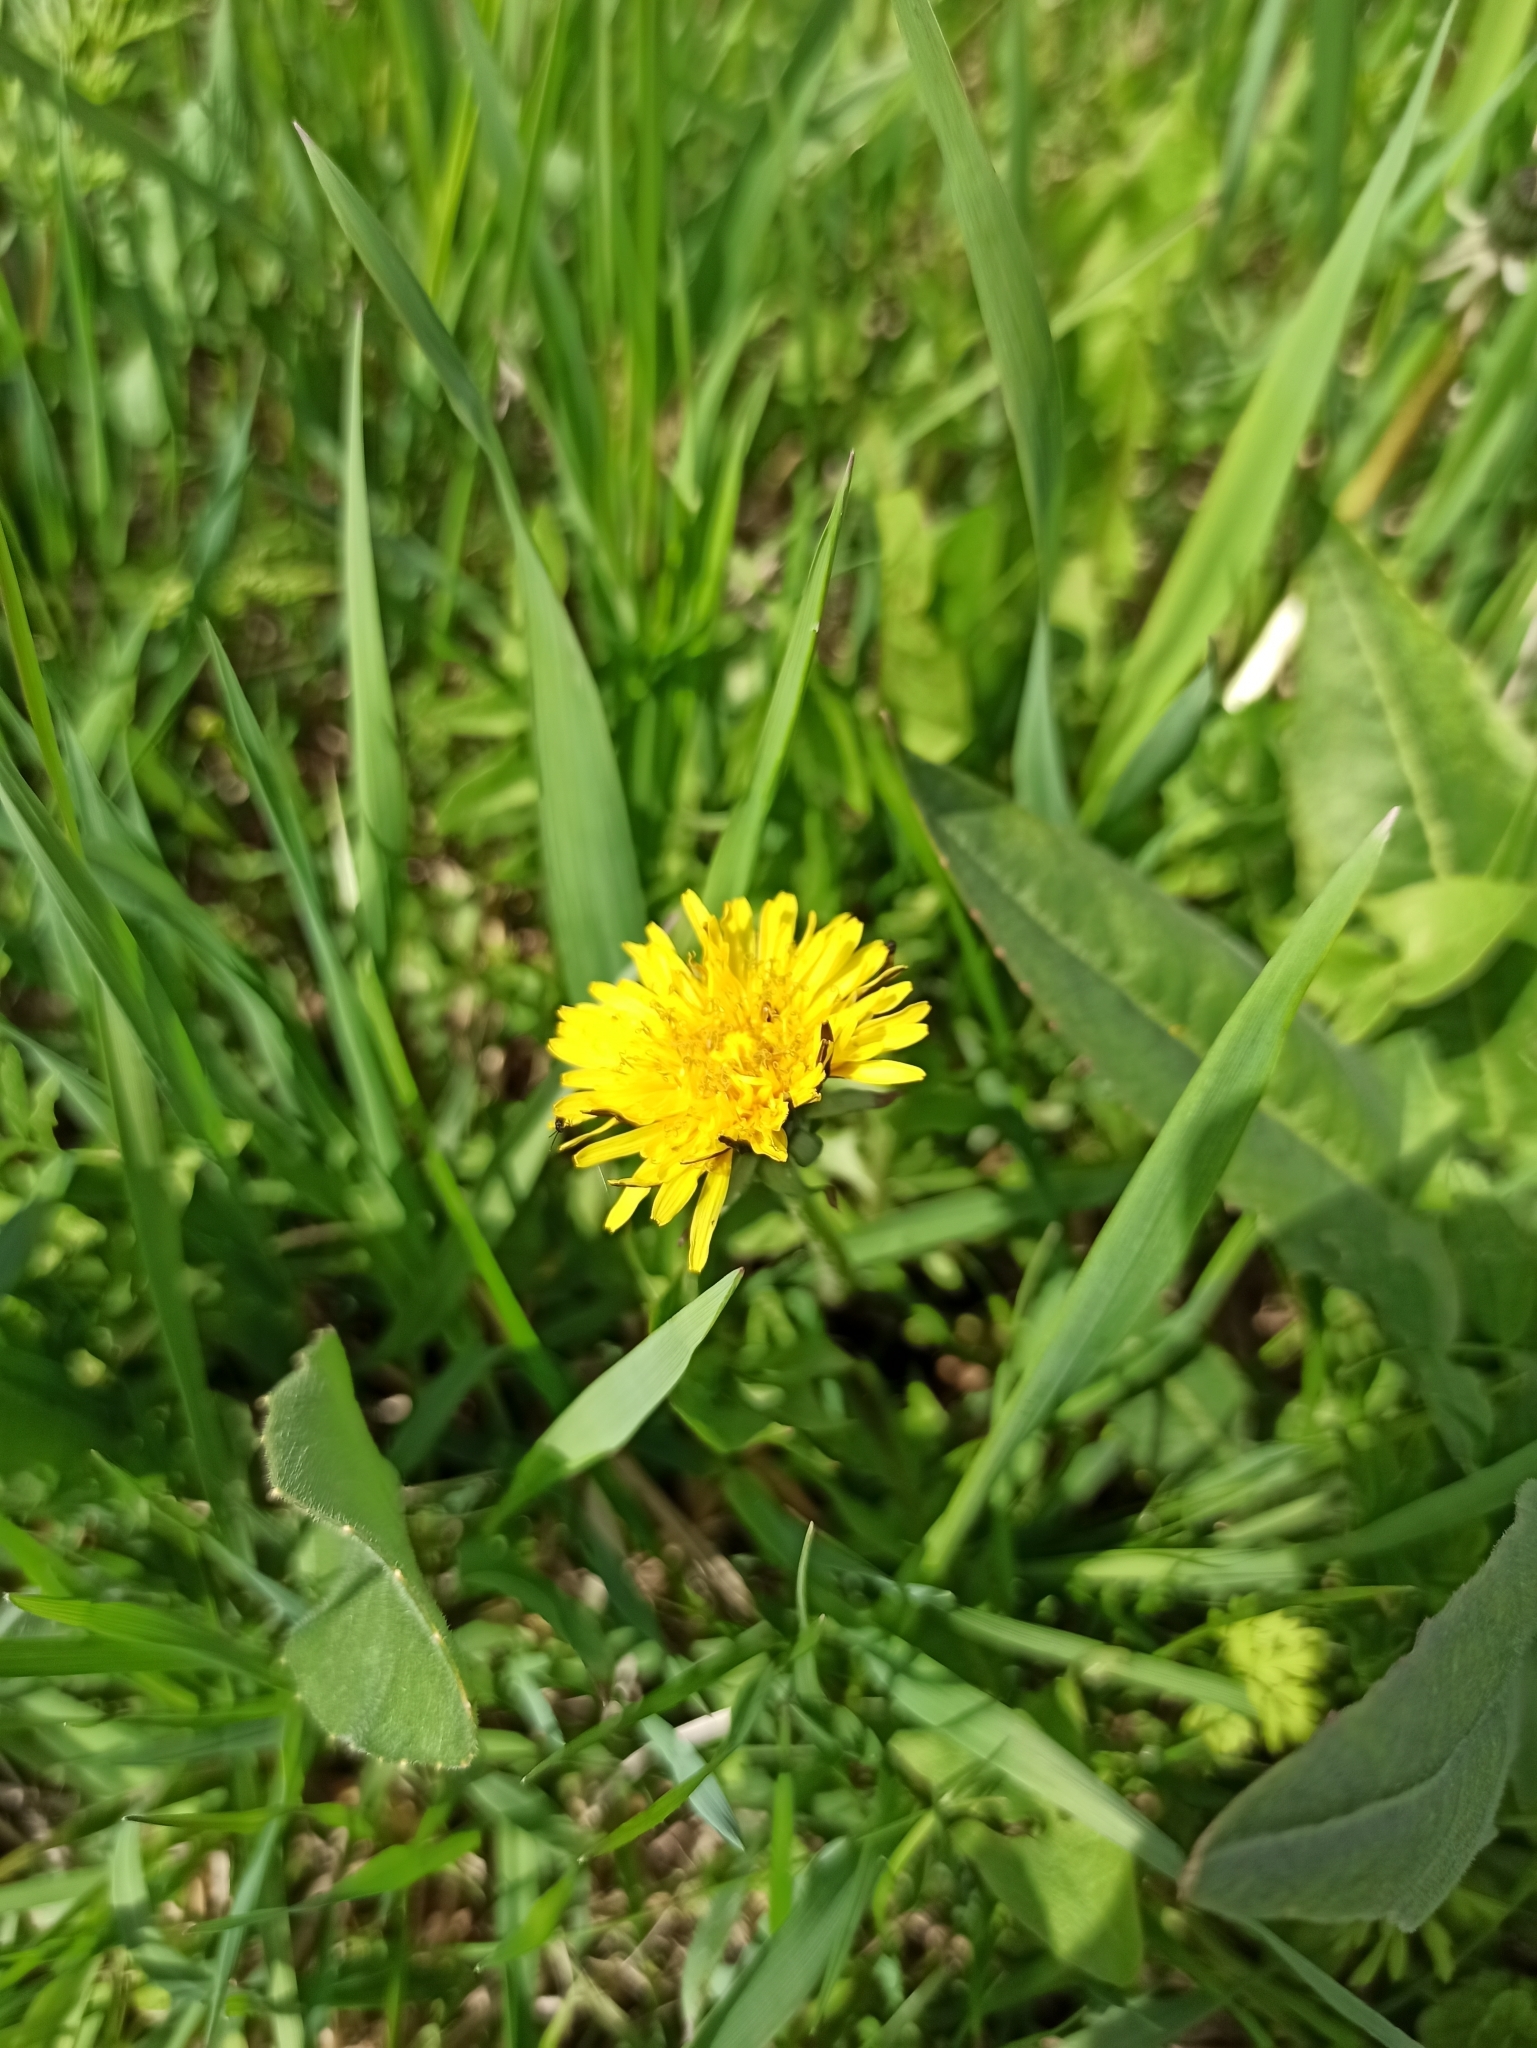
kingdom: Plantae
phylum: Tracheophyta
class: Magnoliopsida
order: Asterales
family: Asteraceae
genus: Taraxacum
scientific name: Taraxacum officinale
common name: Common dandelion
